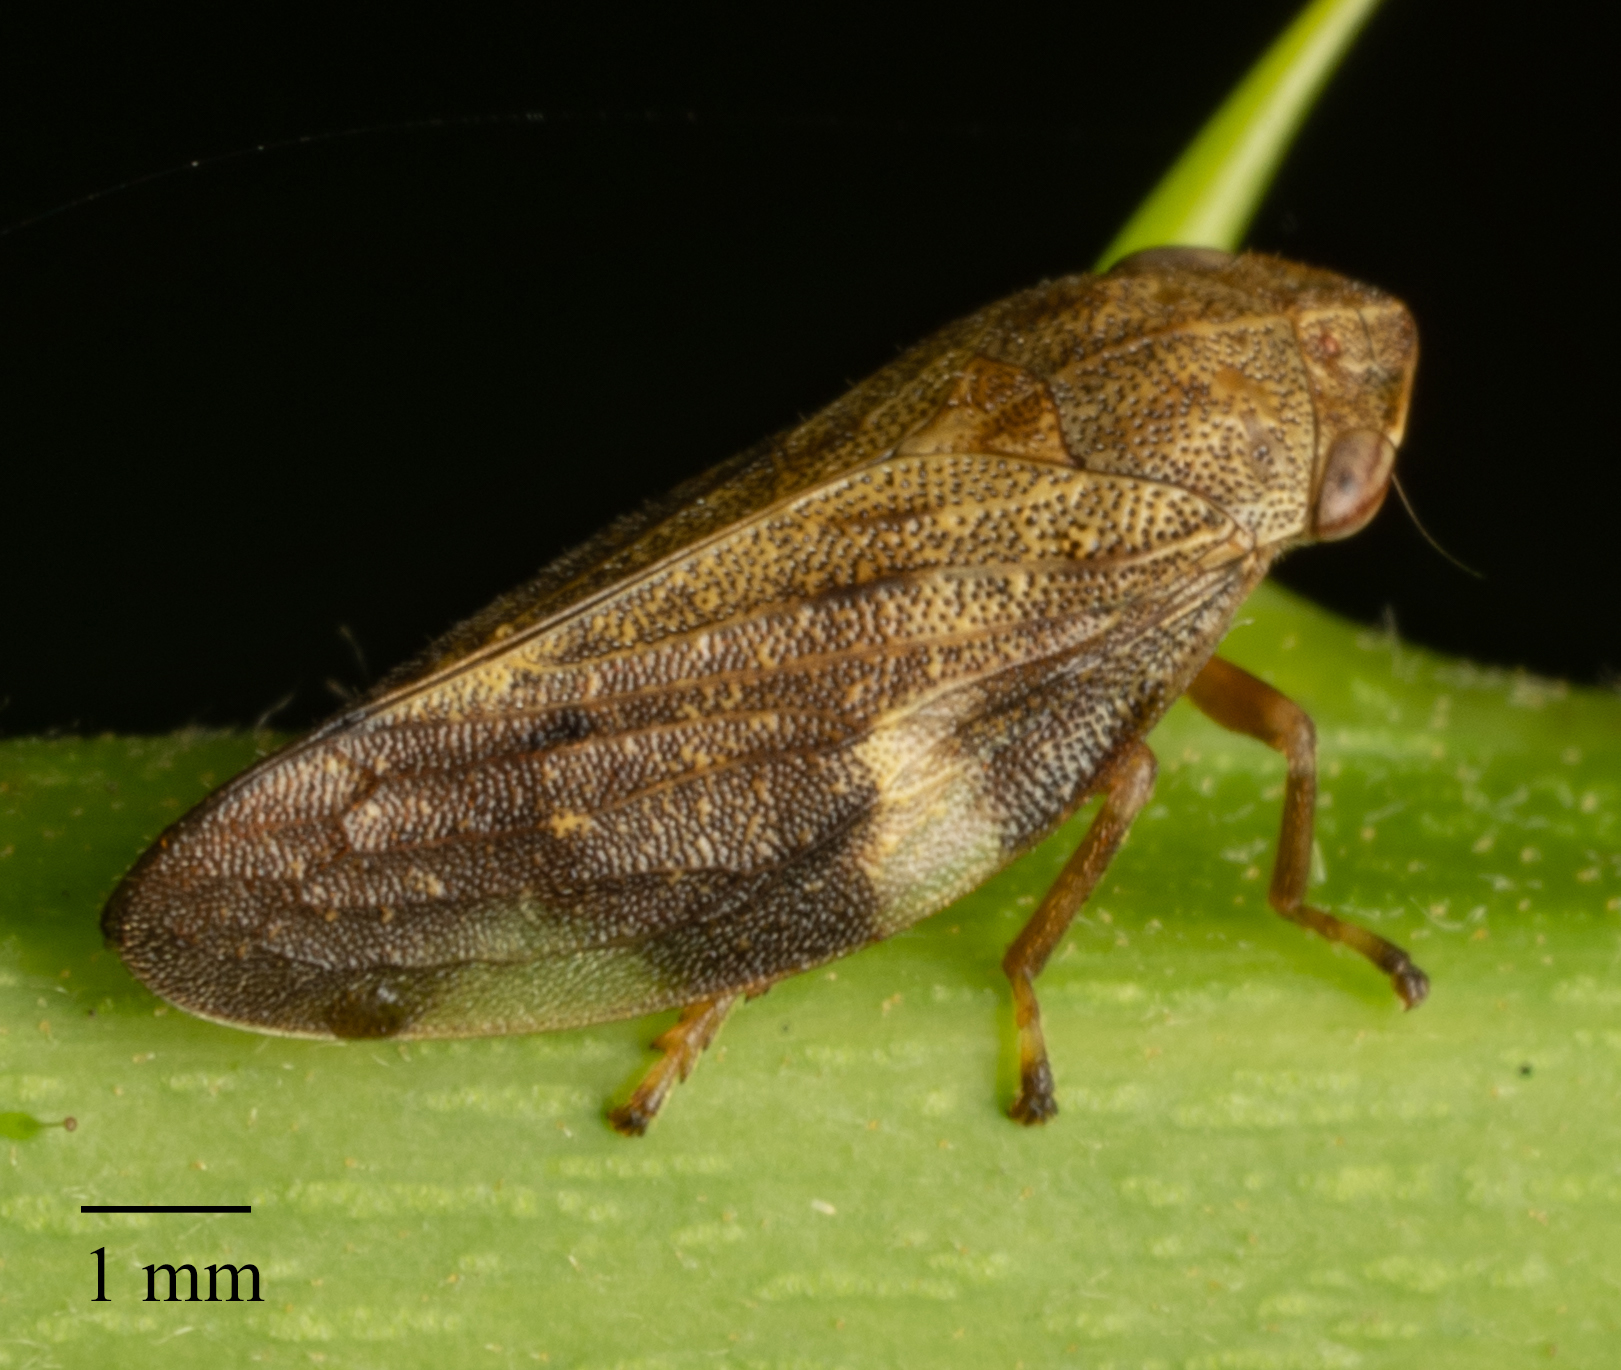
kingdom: Animalia
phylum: Arthropoda
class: Insecta
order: Hemiptera
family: Aphrophoridae
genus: Aphrophora
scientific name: Aphrophora alni
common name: European alder spittlebug
